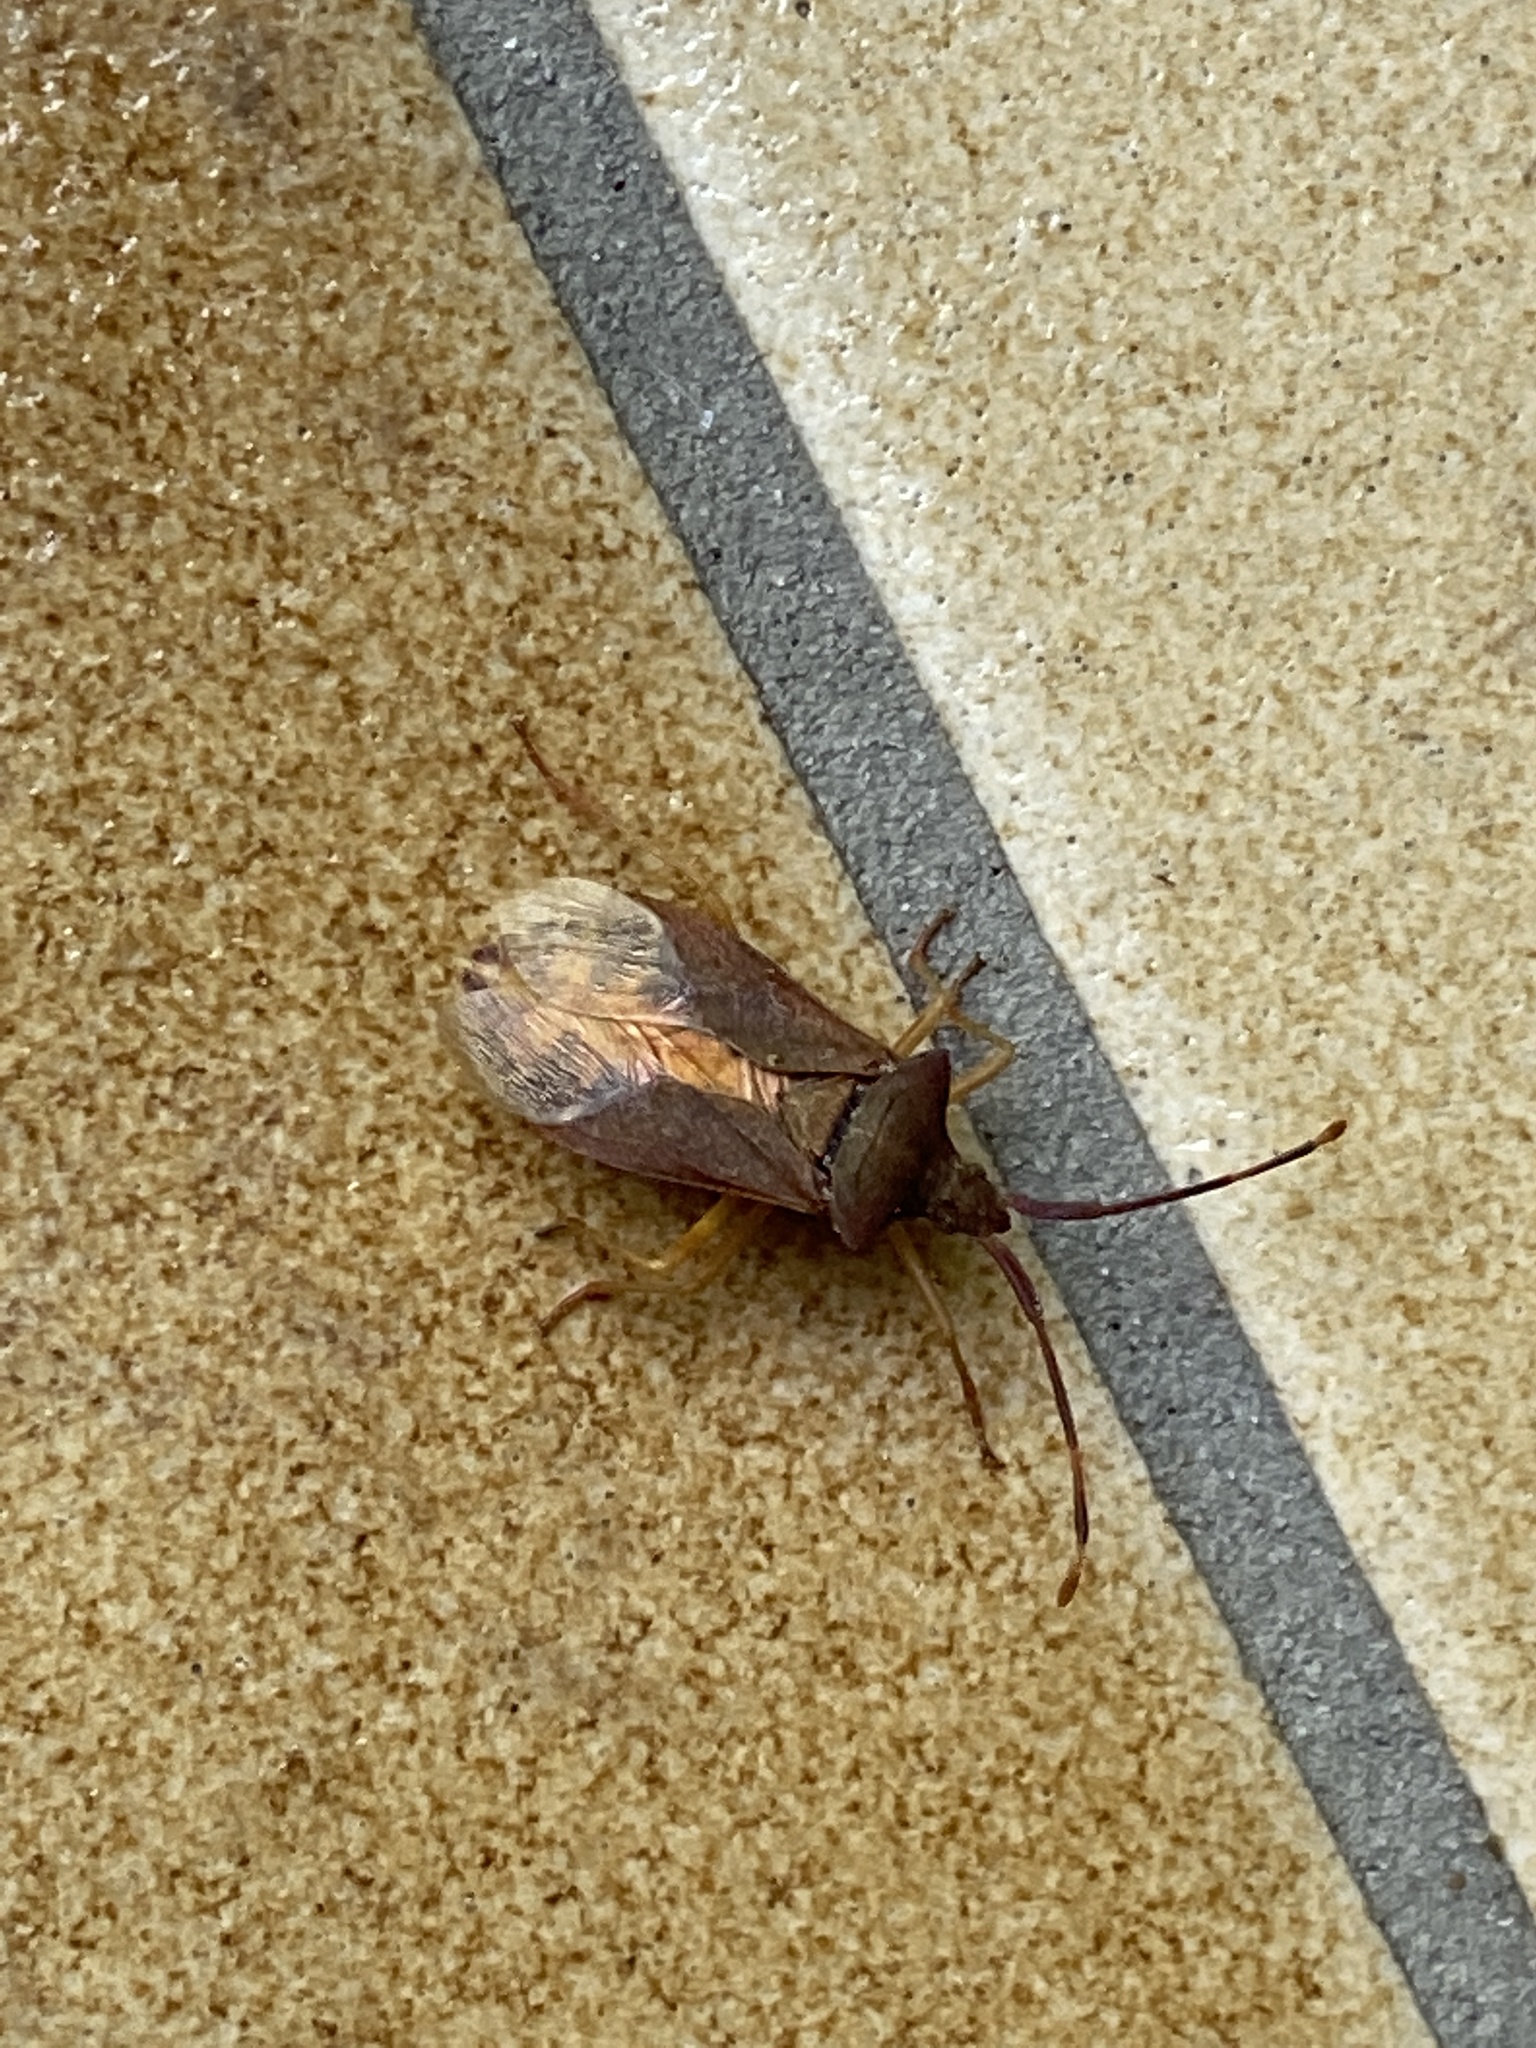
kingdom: Animalia
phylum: Arthropoda
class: Insecta
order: Hemiptera
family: Coreidae
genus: Gonocerus
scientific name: Gonocerus acuteangulatus
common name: Box bug
